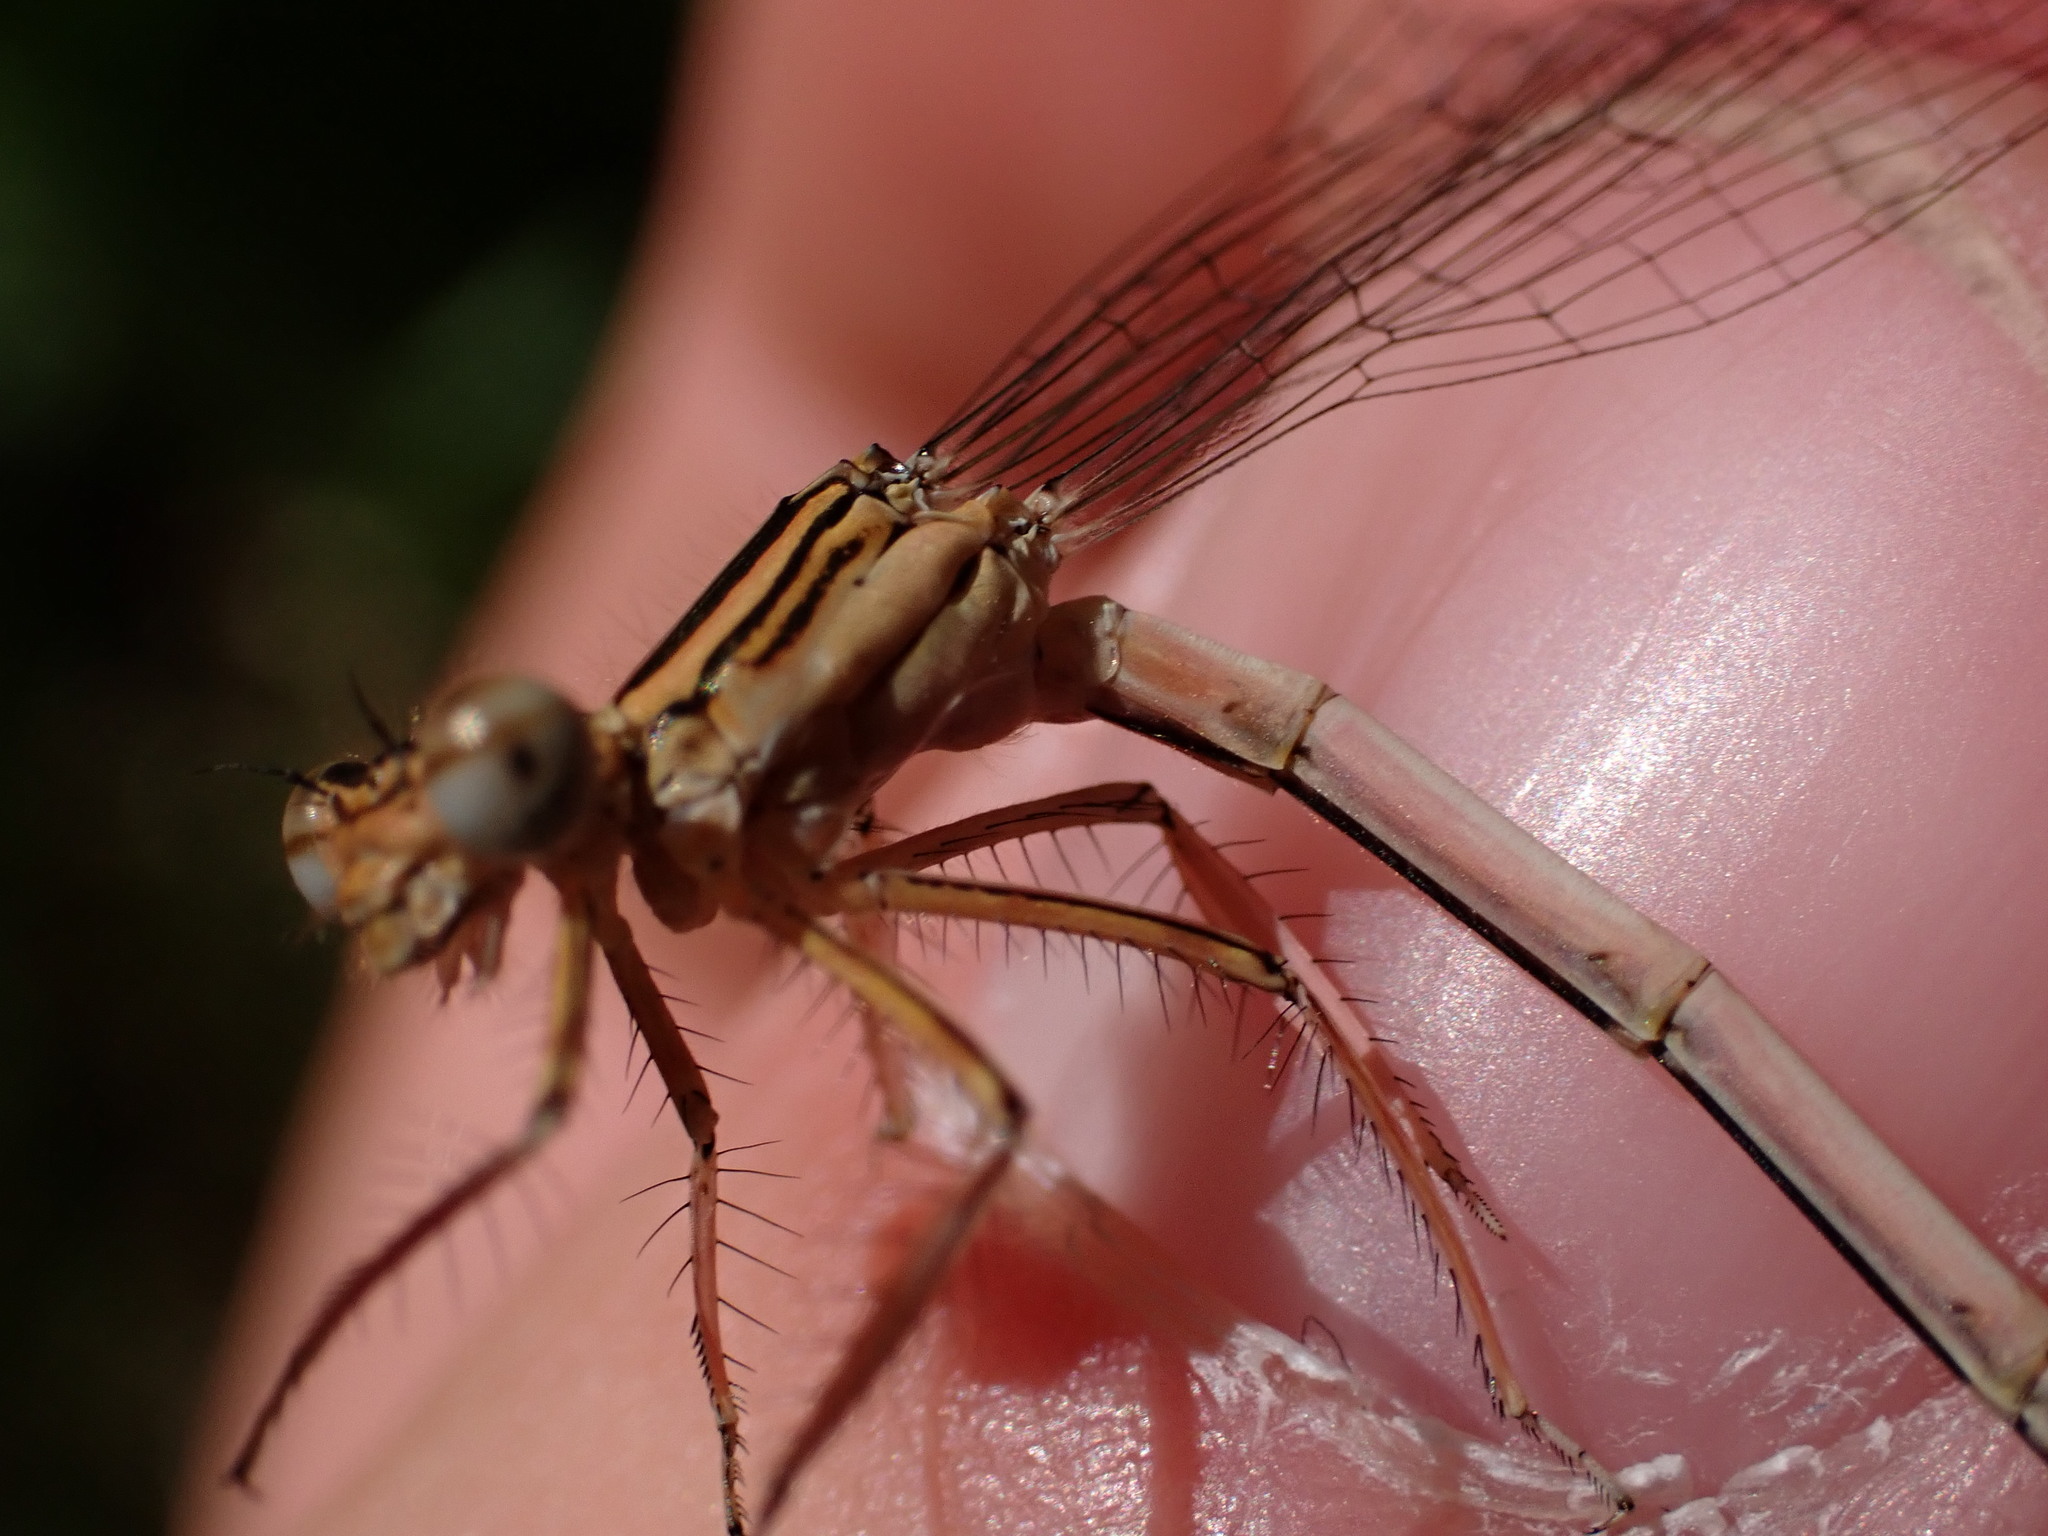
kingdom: Animalia
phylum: Arthropoda
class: Insecta
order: Odonata
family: Platycnemididae
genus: Platycnemis
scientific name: Platycnemis latipes
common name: White featherleg
